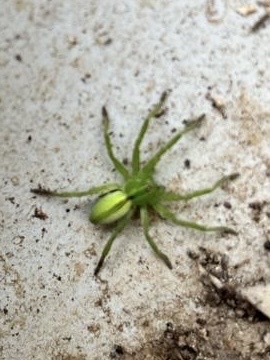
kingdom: Animalia
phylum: Arthropoda
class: Arachnida
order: Araneae
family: Sparassidae
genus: Micrommata
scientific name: Micrommata ligurina
